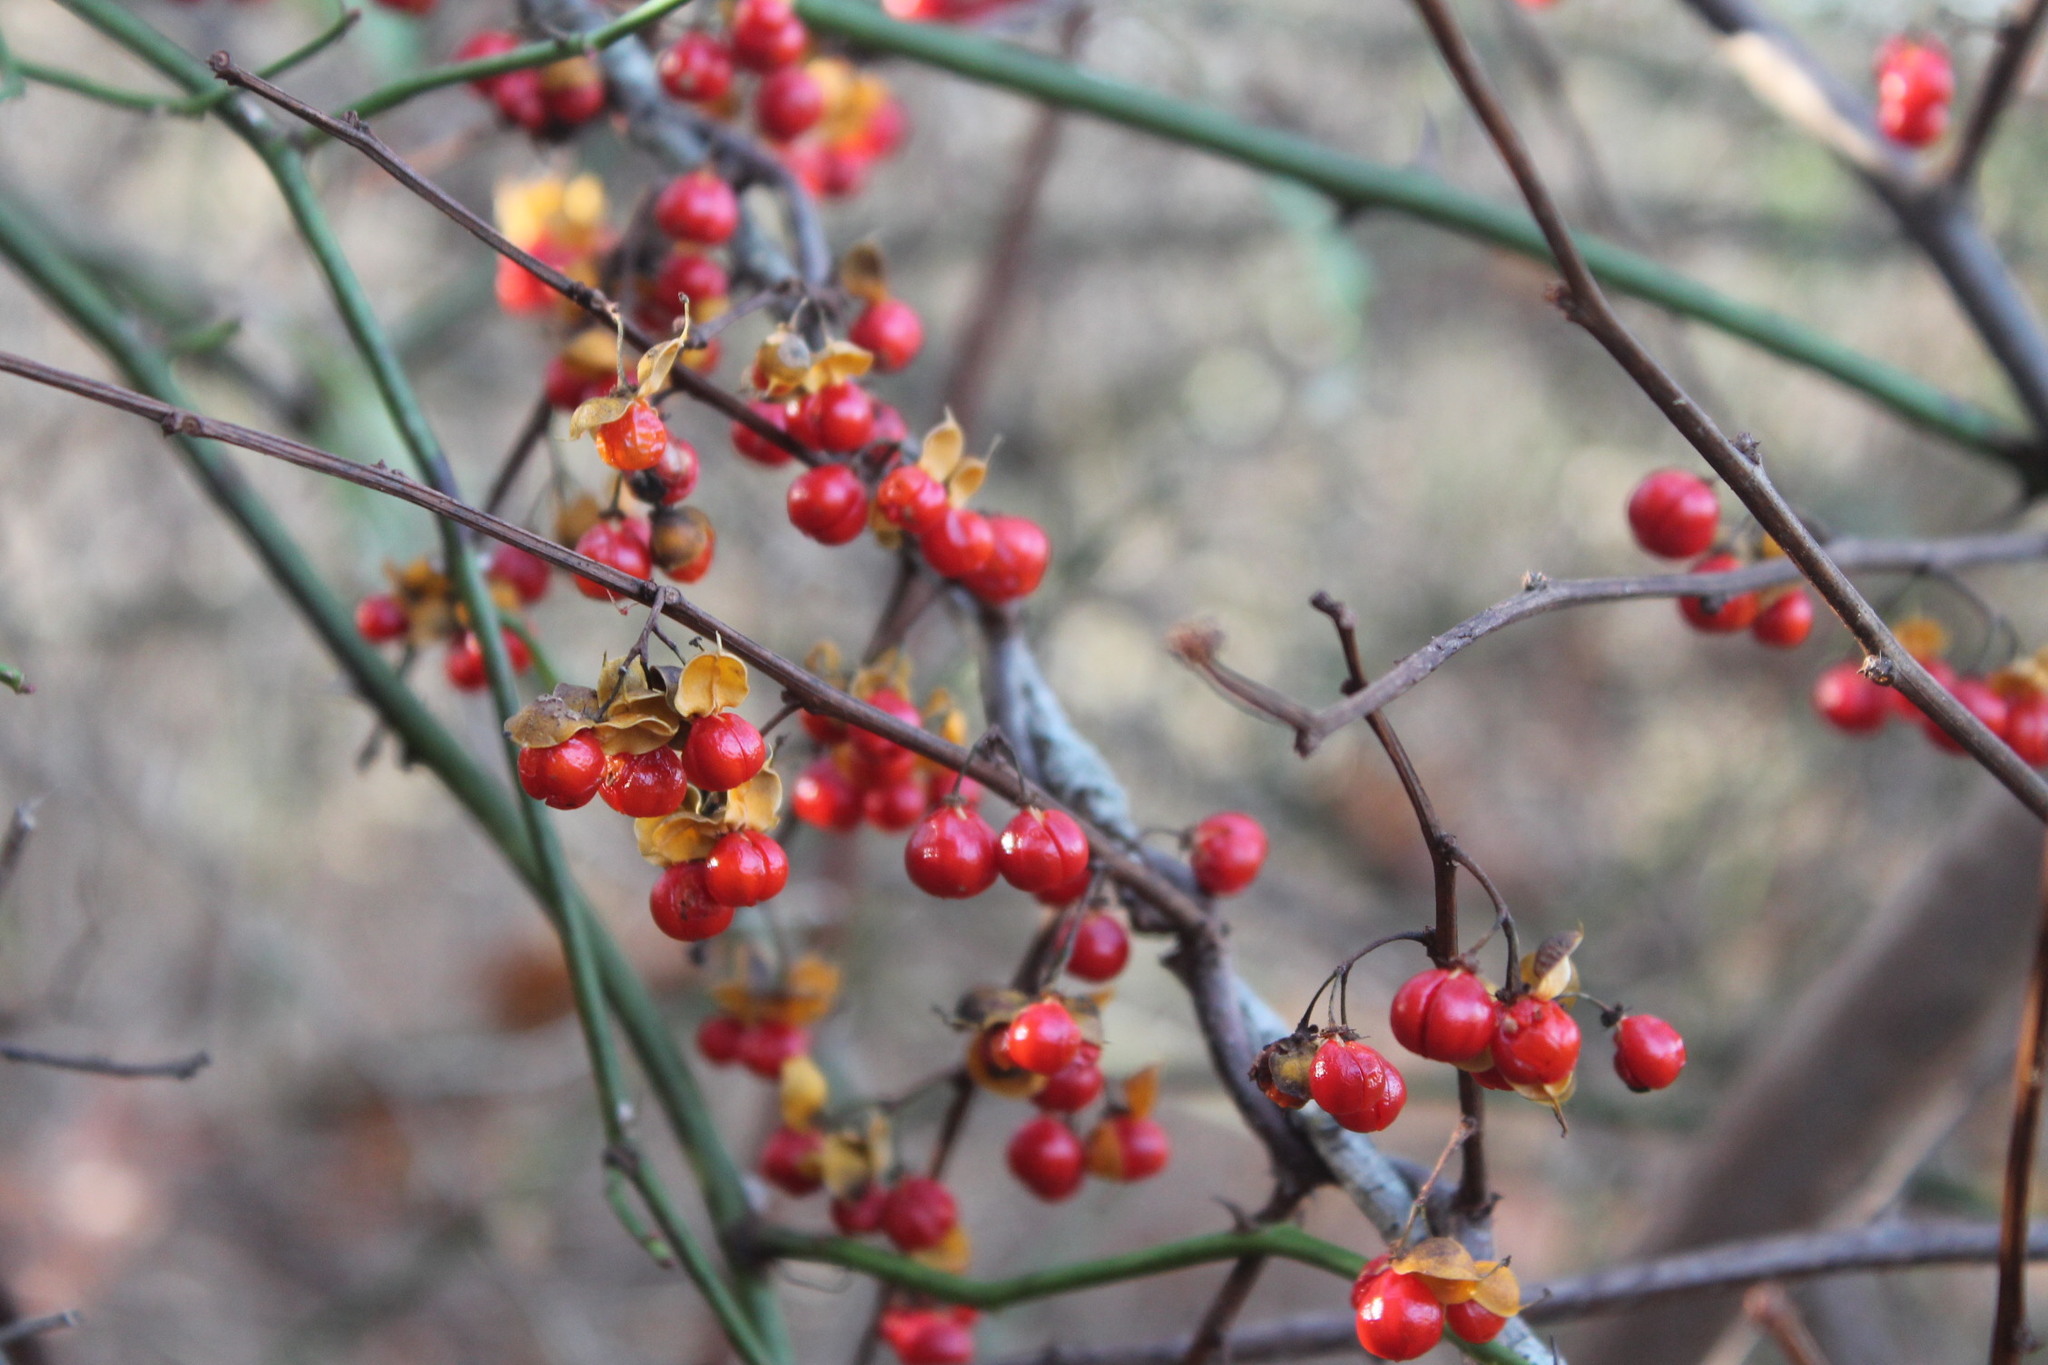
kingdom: Plantae
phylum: Tracheophyta
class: Magnoliopsida
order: Celastrales
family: Celastraceae
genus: Celastrus
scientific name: Celastrus orbiculatus
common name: Oriental bittersweet
